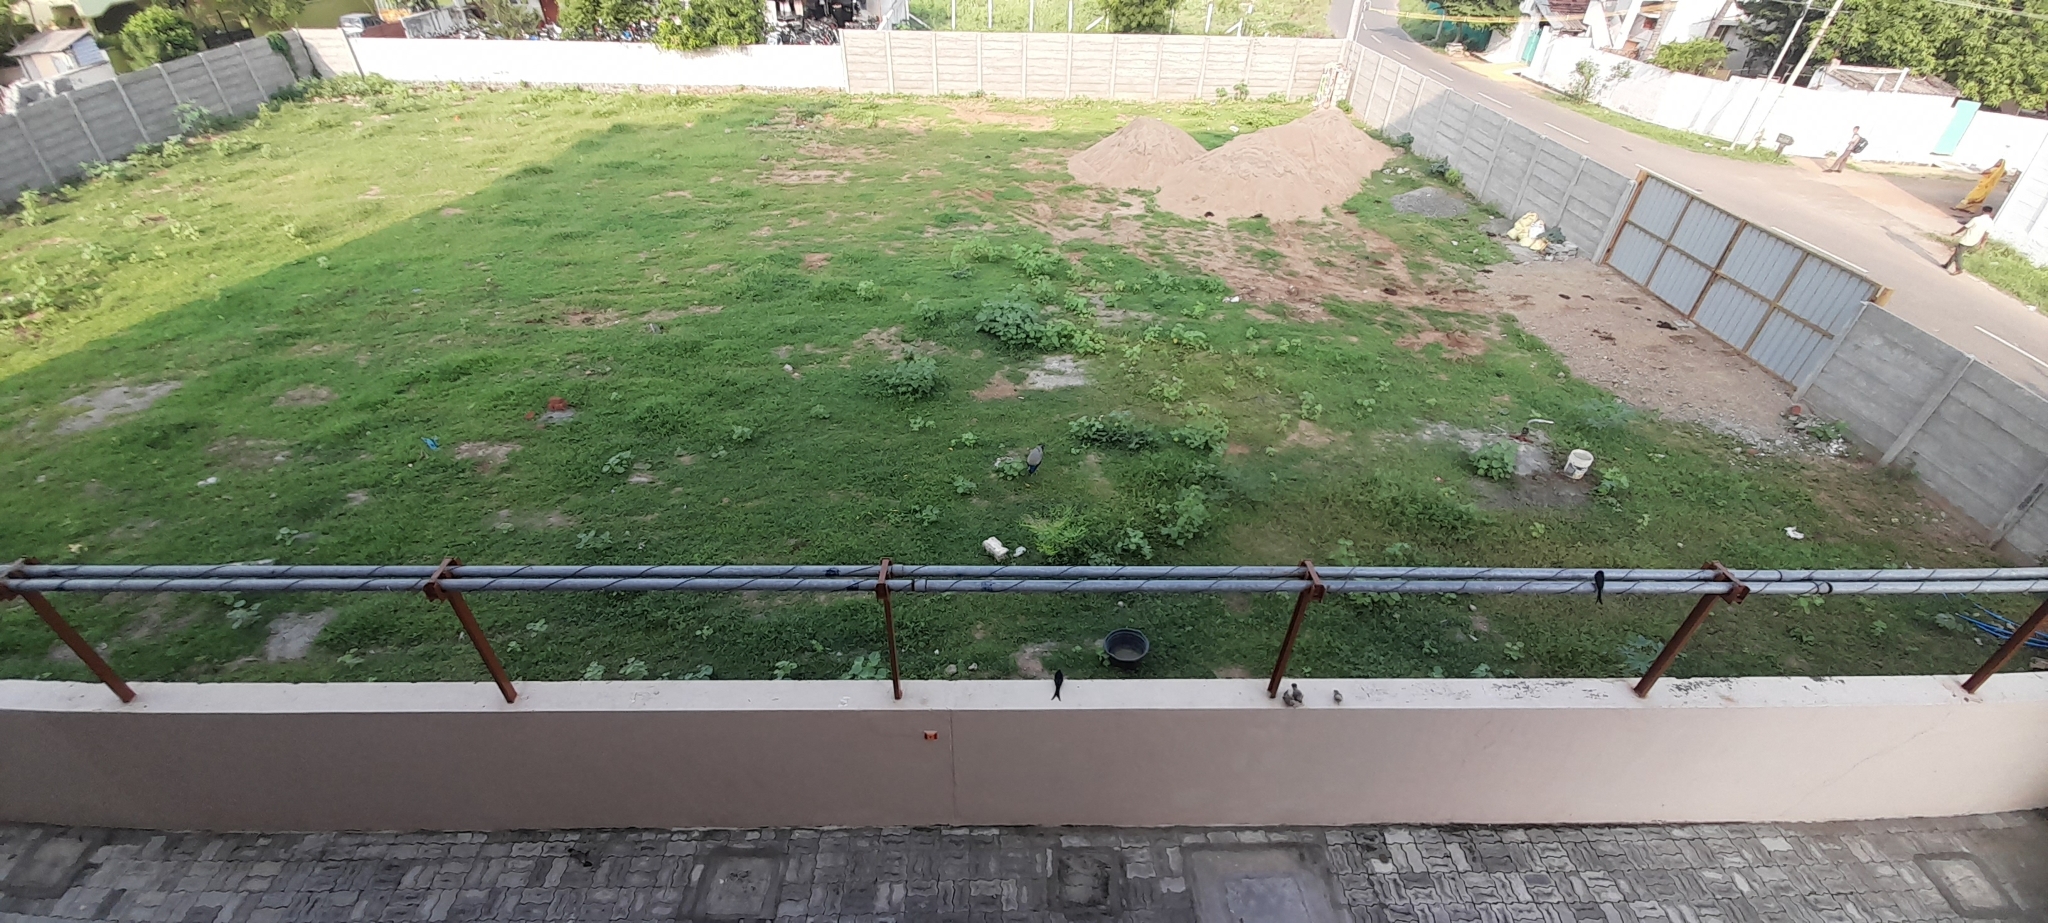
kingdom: Animalia
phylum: Chordata
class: Aves
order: Galliformes
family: Phasianidae
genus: Pavo
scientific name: Pavo cristatus
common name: Indian peafowl
